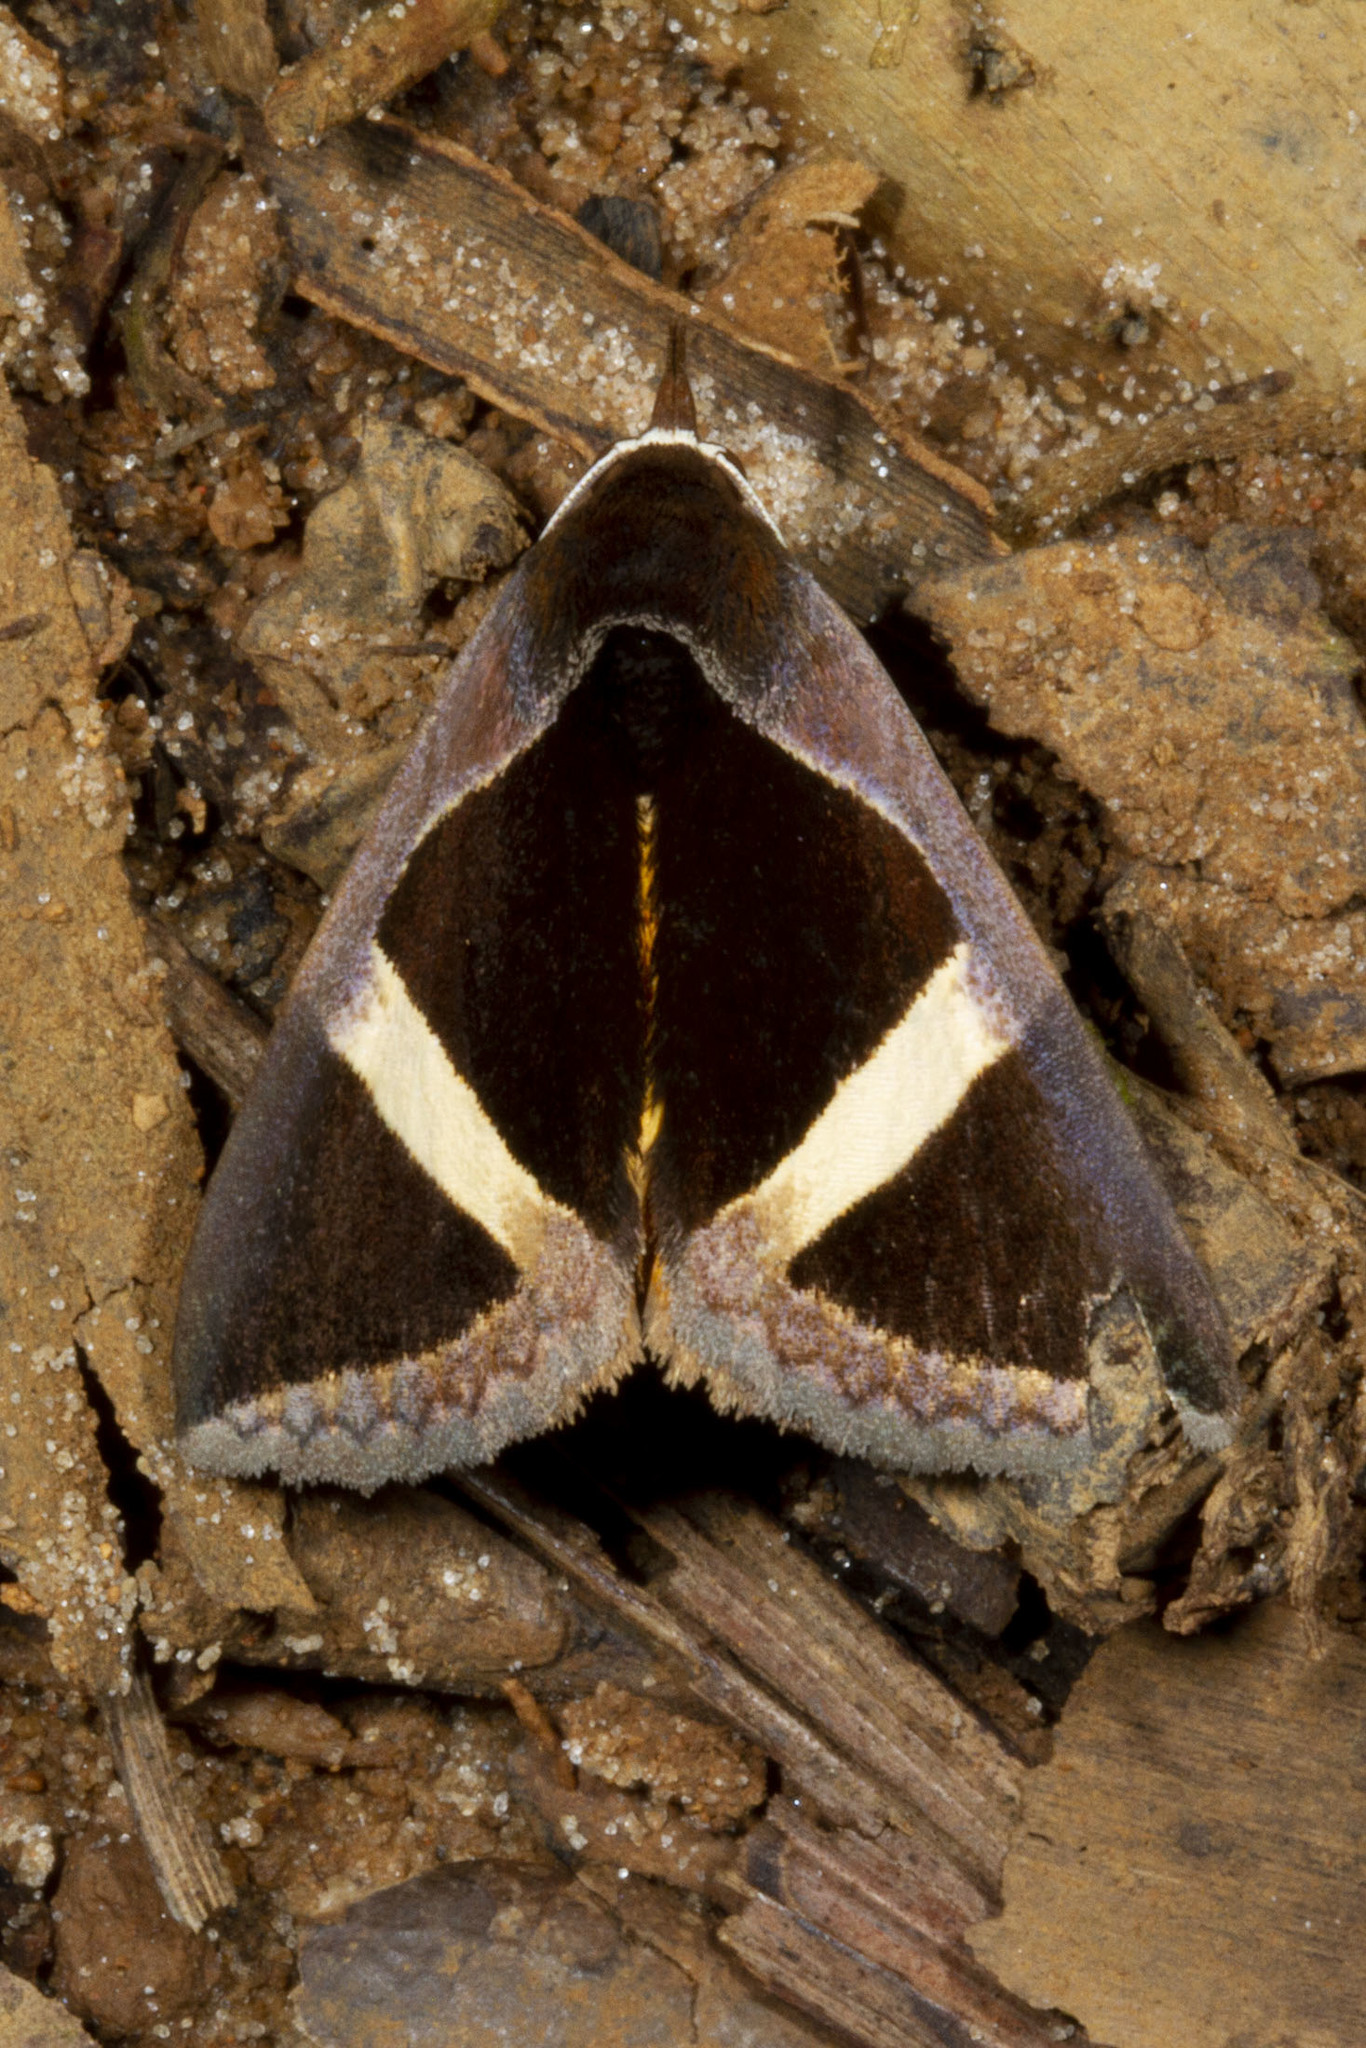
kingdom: Animalia
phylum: Arthropoda
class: Insecta
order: Lepidoptera
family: Erebidae
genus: Fodina
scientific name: Fodina hayesi
